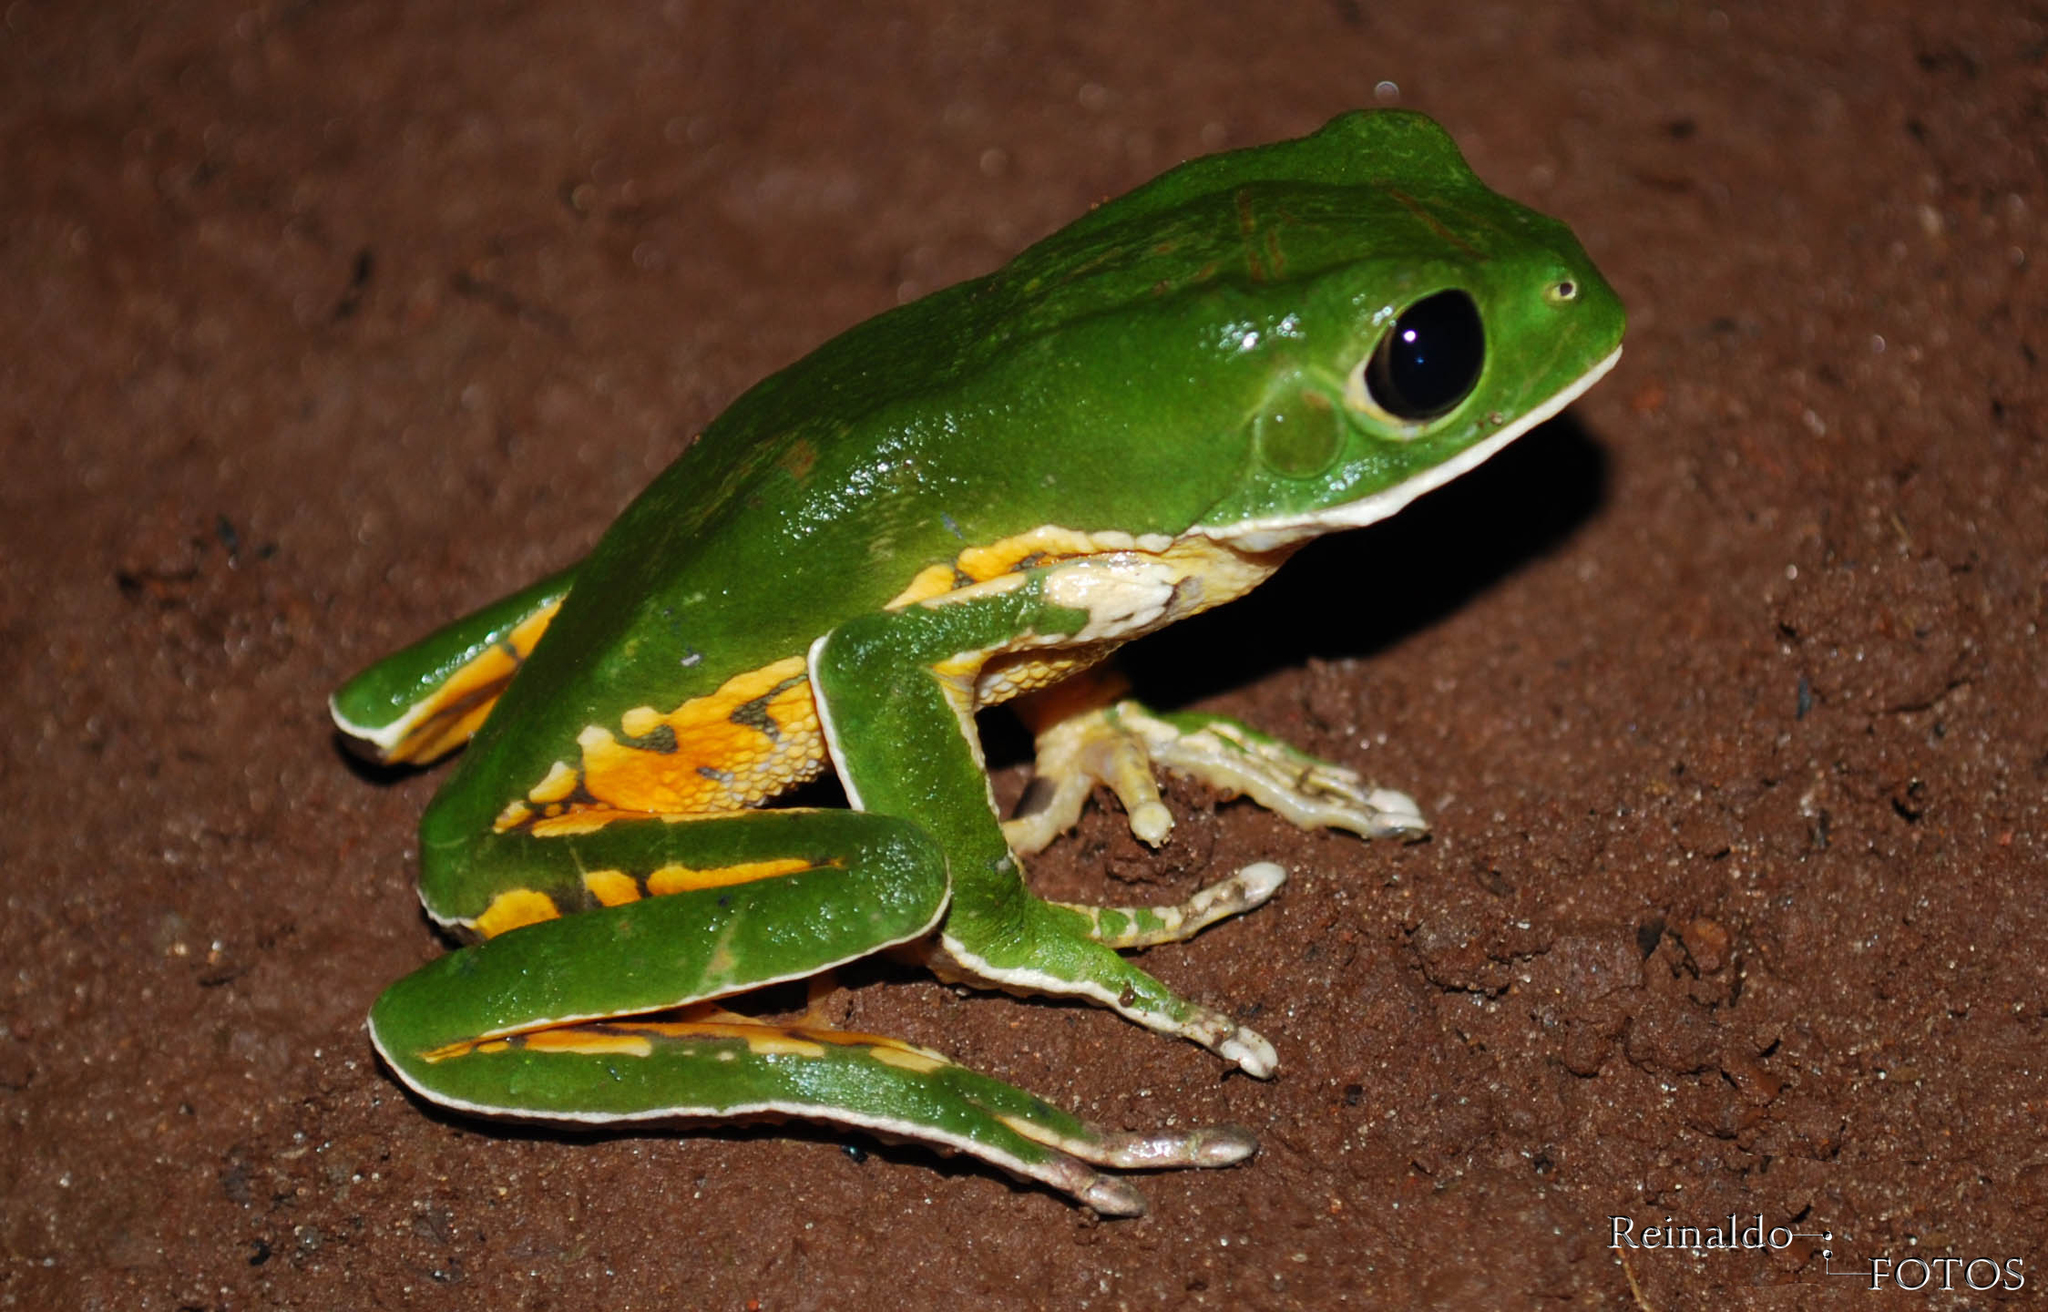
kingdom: Animalia
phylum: Chordata
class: Amphibia
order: Anura
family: Phyllomedusidae
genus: Phyllomedusa
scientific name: Phyllomedusa tetraploidea
